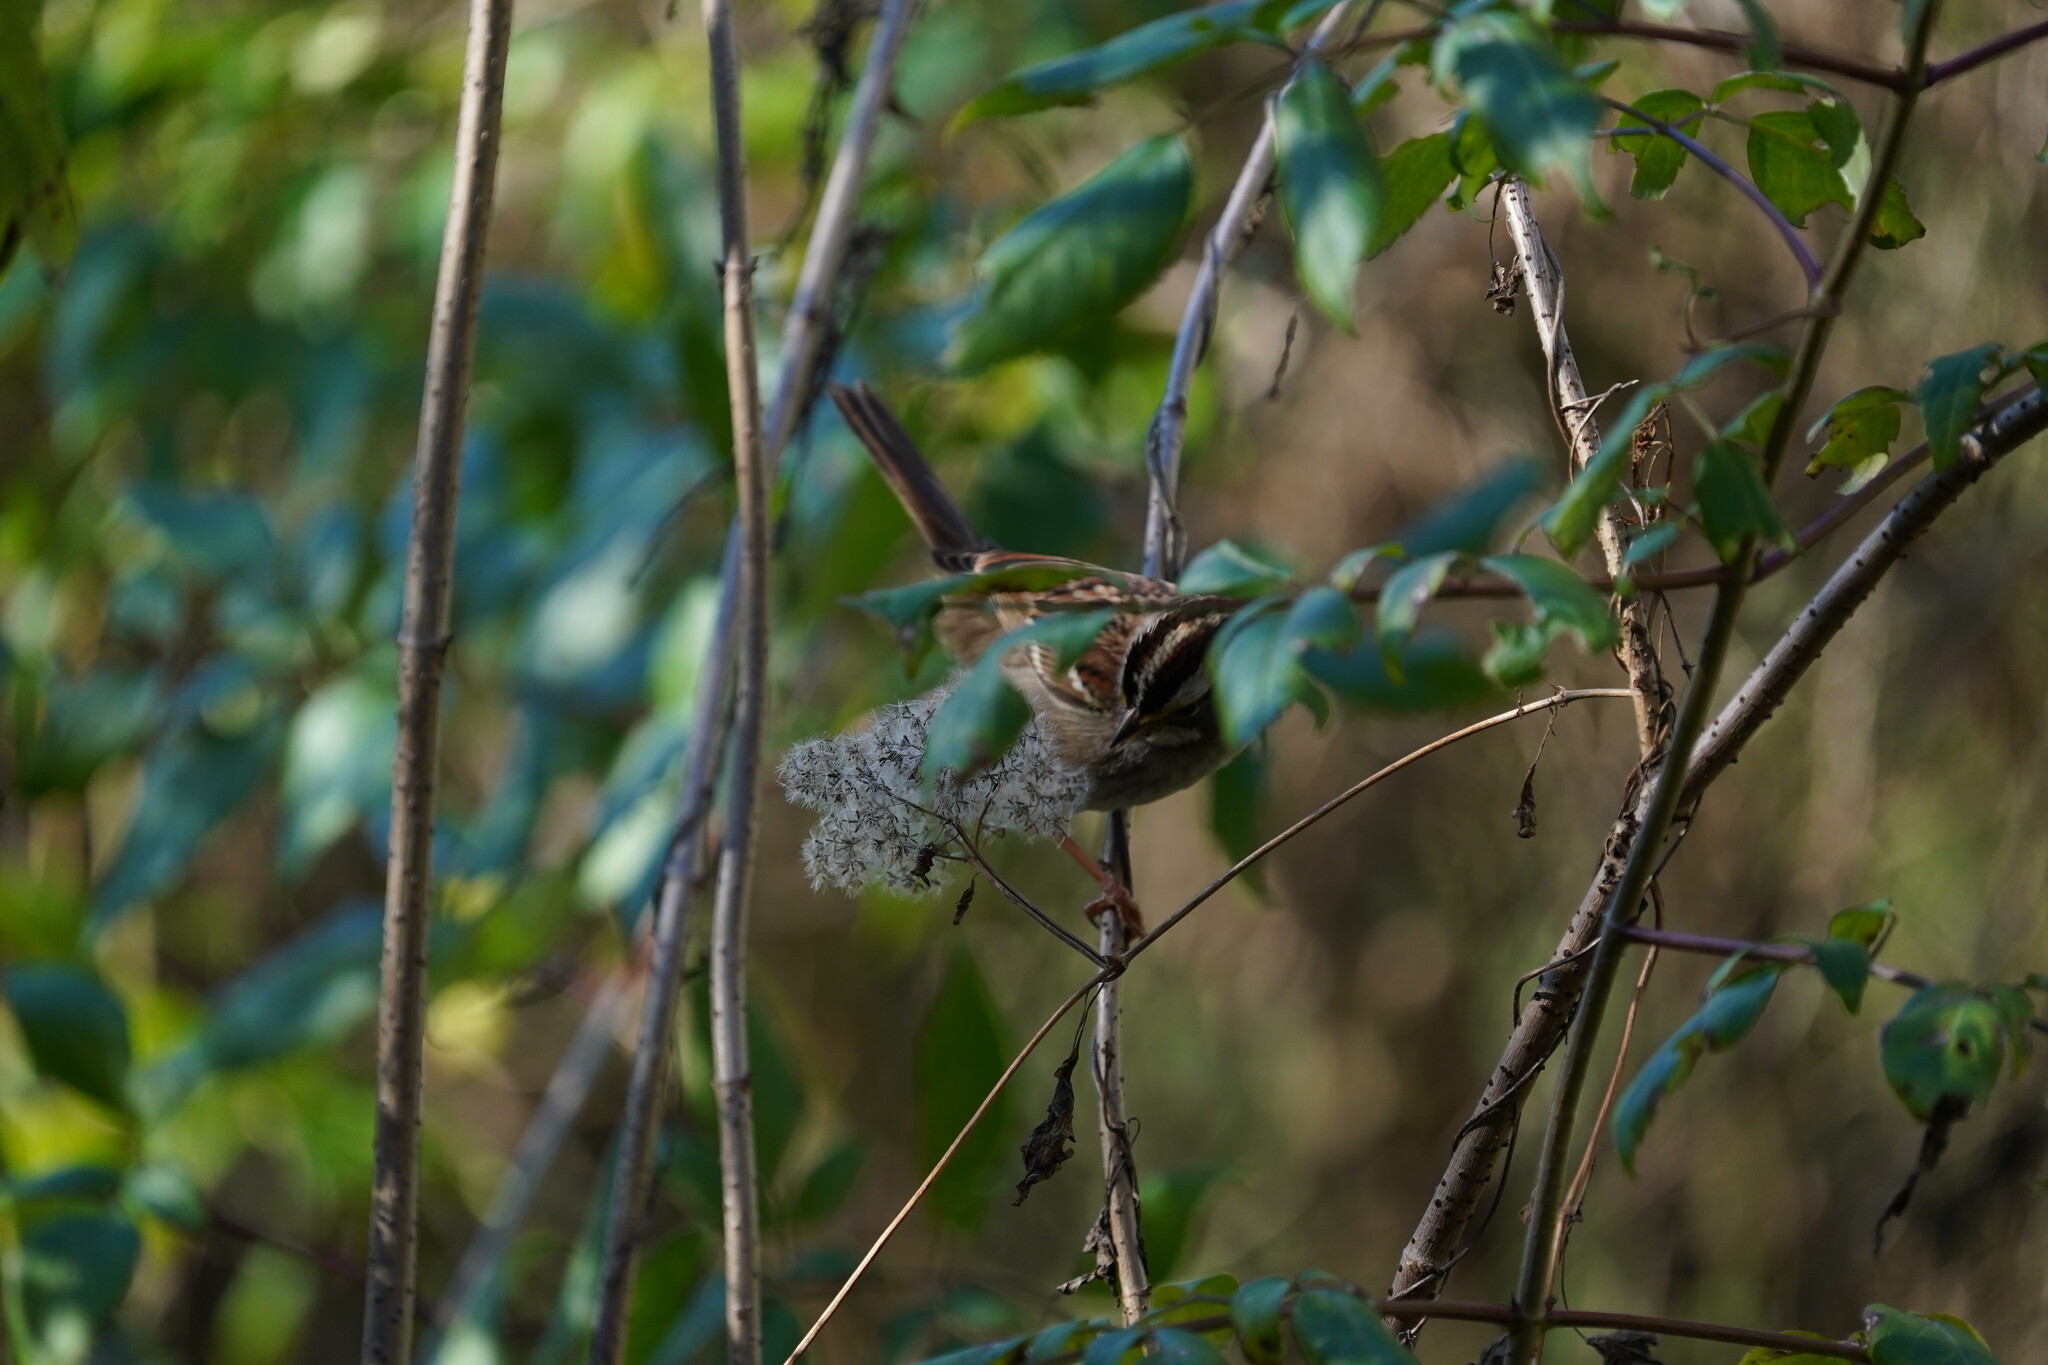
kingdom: Animalia
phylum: Chordata
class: Aves
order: Passeriformes
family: Passerellidae
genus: Zonotrichia
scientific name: Zonotrichia albicollis
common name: White-throated sparrow
